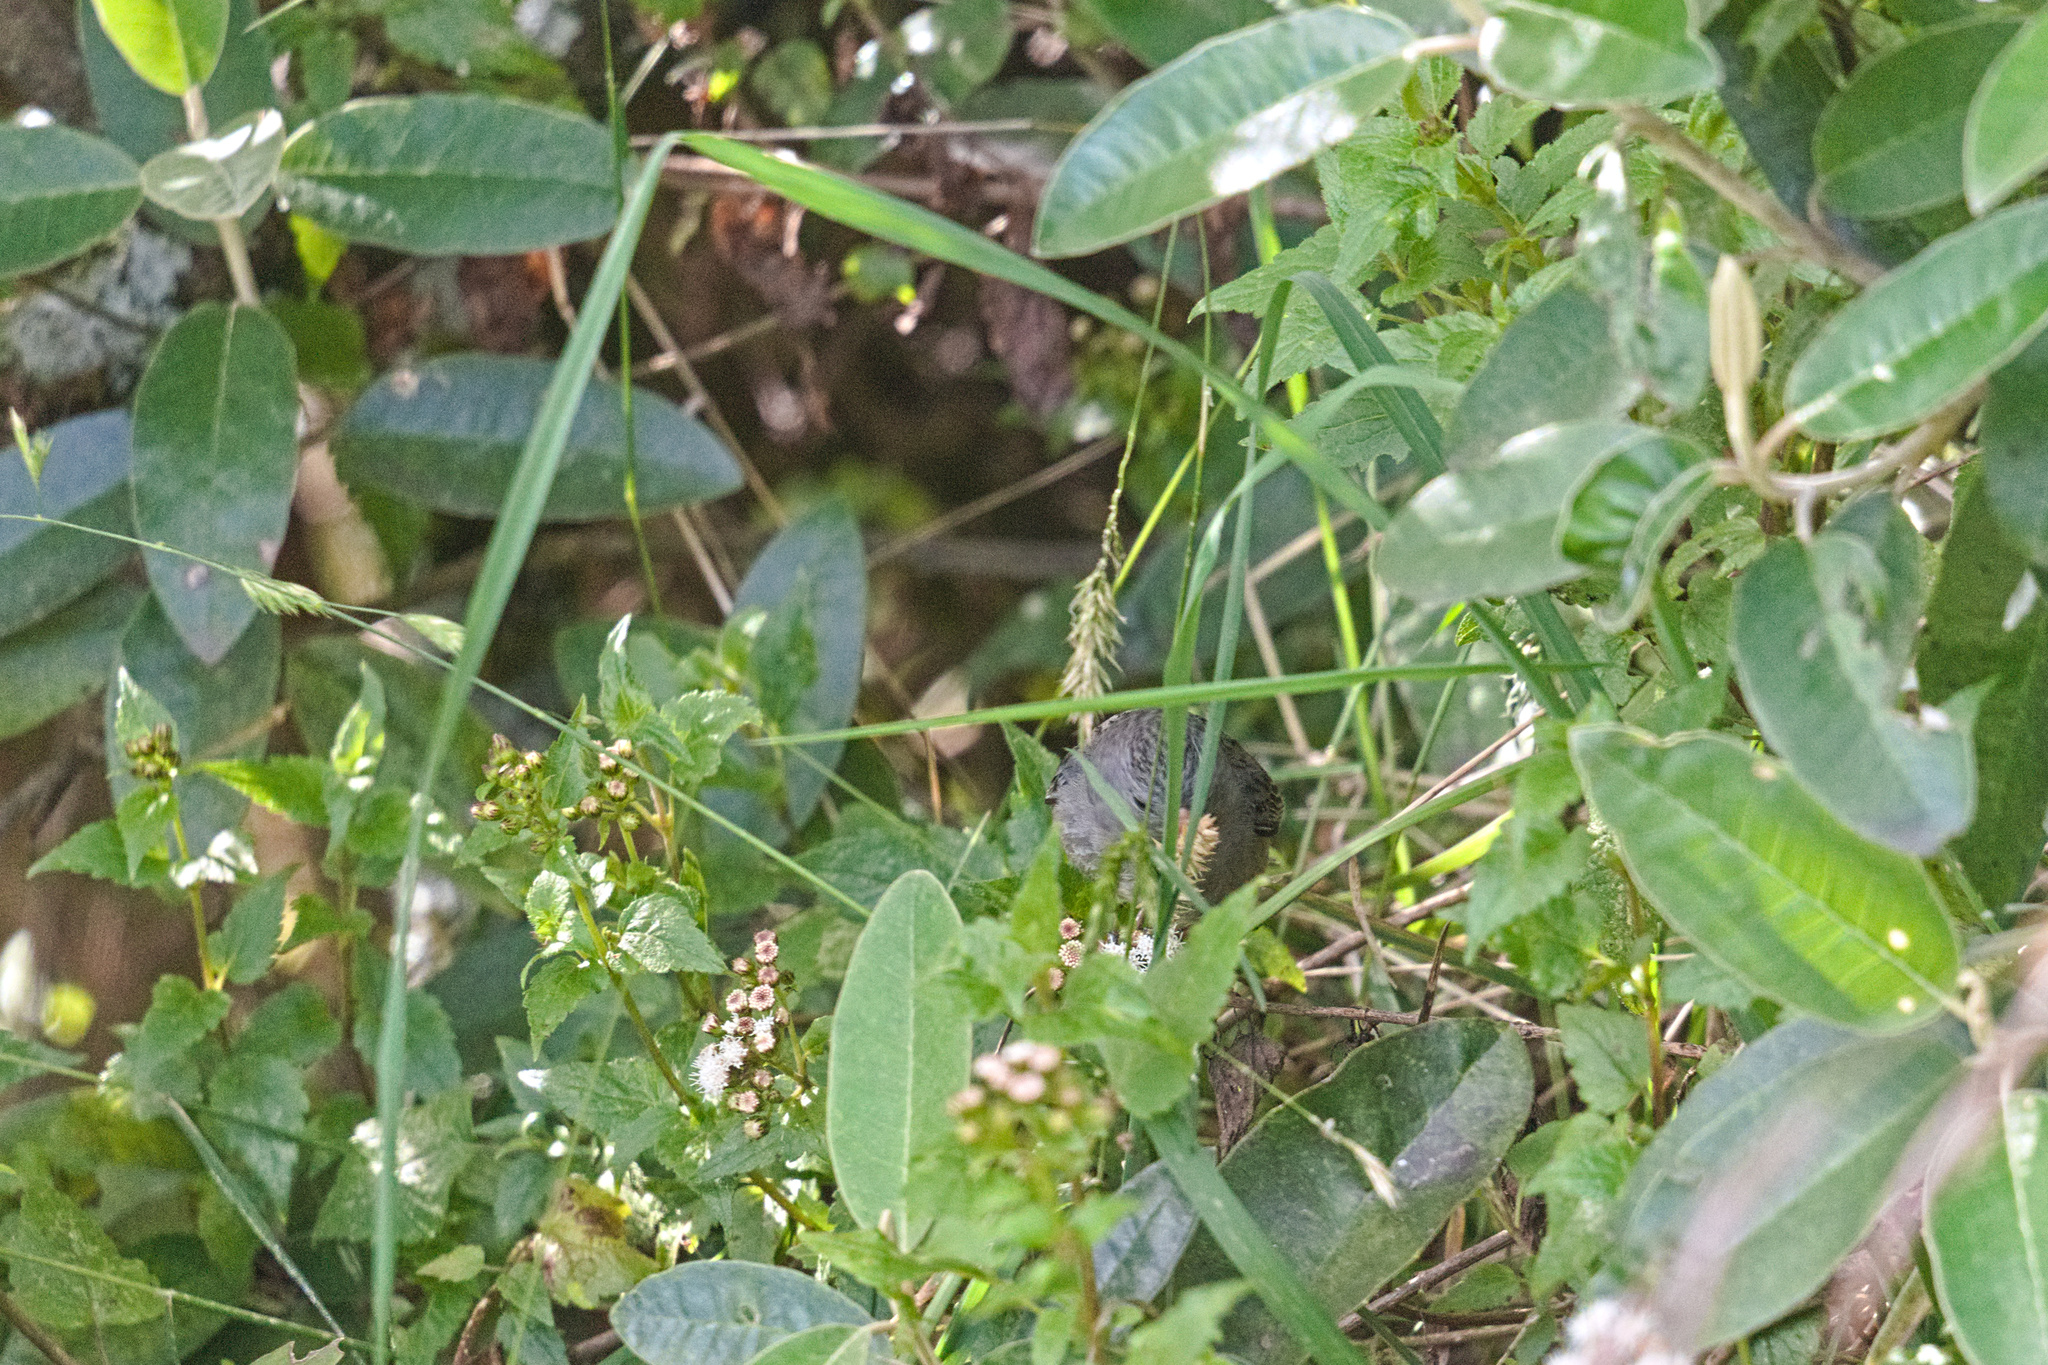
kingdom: Animalia
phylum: Chordata
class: Aves
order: Passeriformes
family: Thraupidae
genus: Catamenia
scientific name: Catamenia inornata
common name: Plain-colored seedeater
